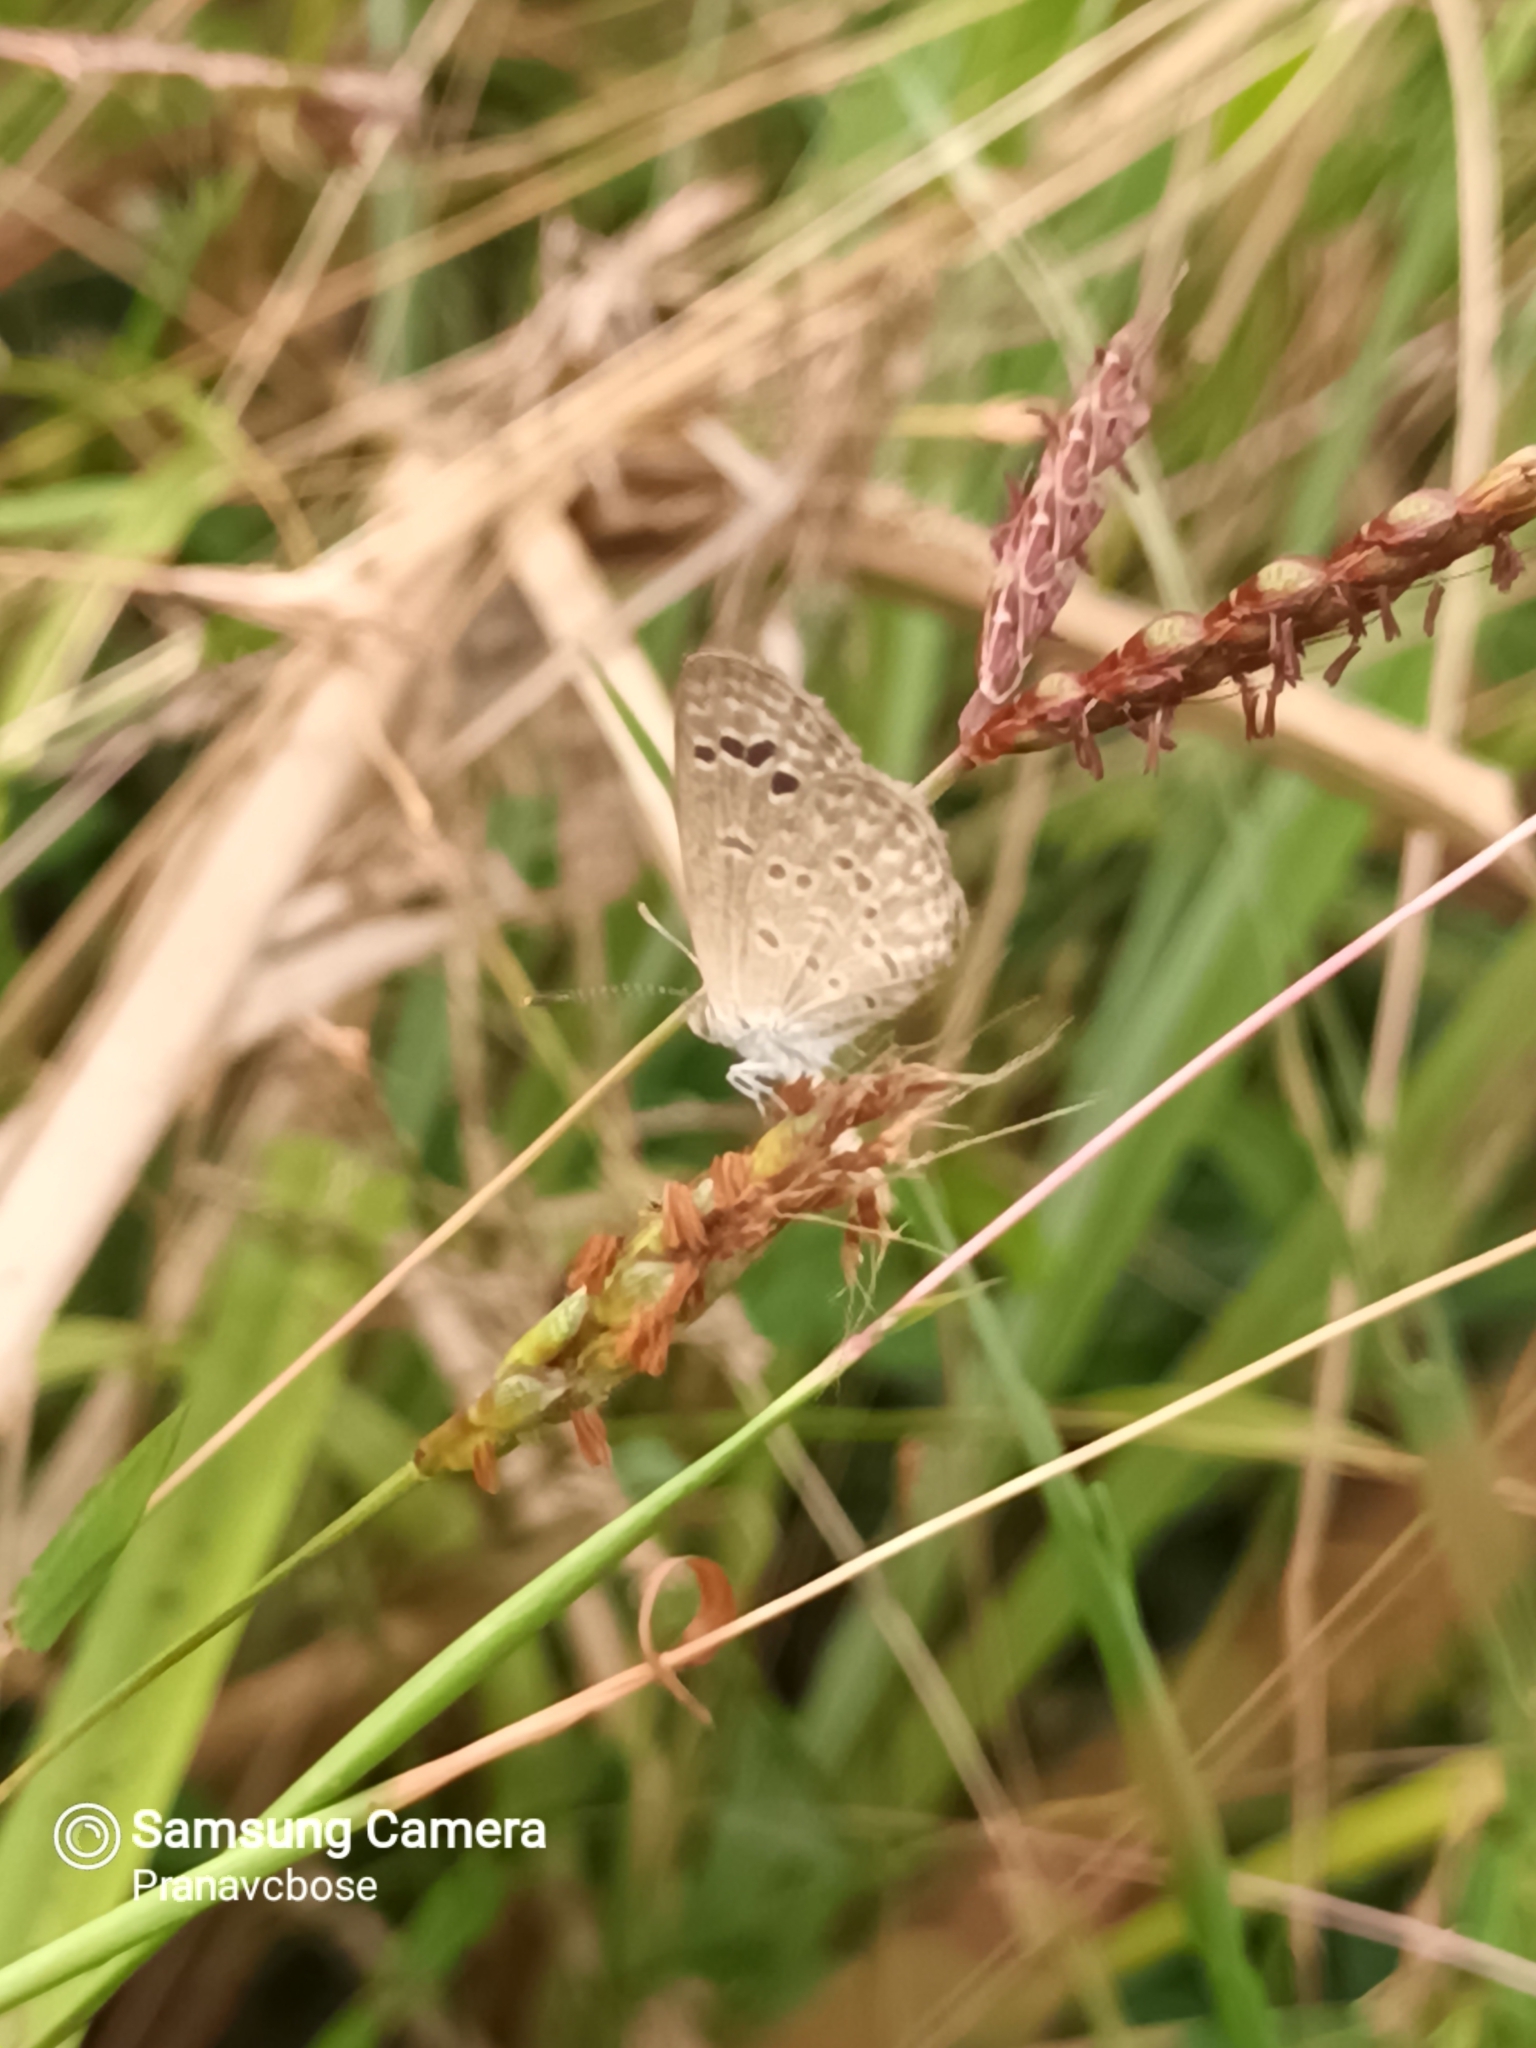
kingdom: Animalia
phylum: Arthropoda
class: Insecta
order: Lepidoptera
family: Lycaenidae
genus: Zizina
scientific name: Zizina otis
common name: Lesser grass blue
